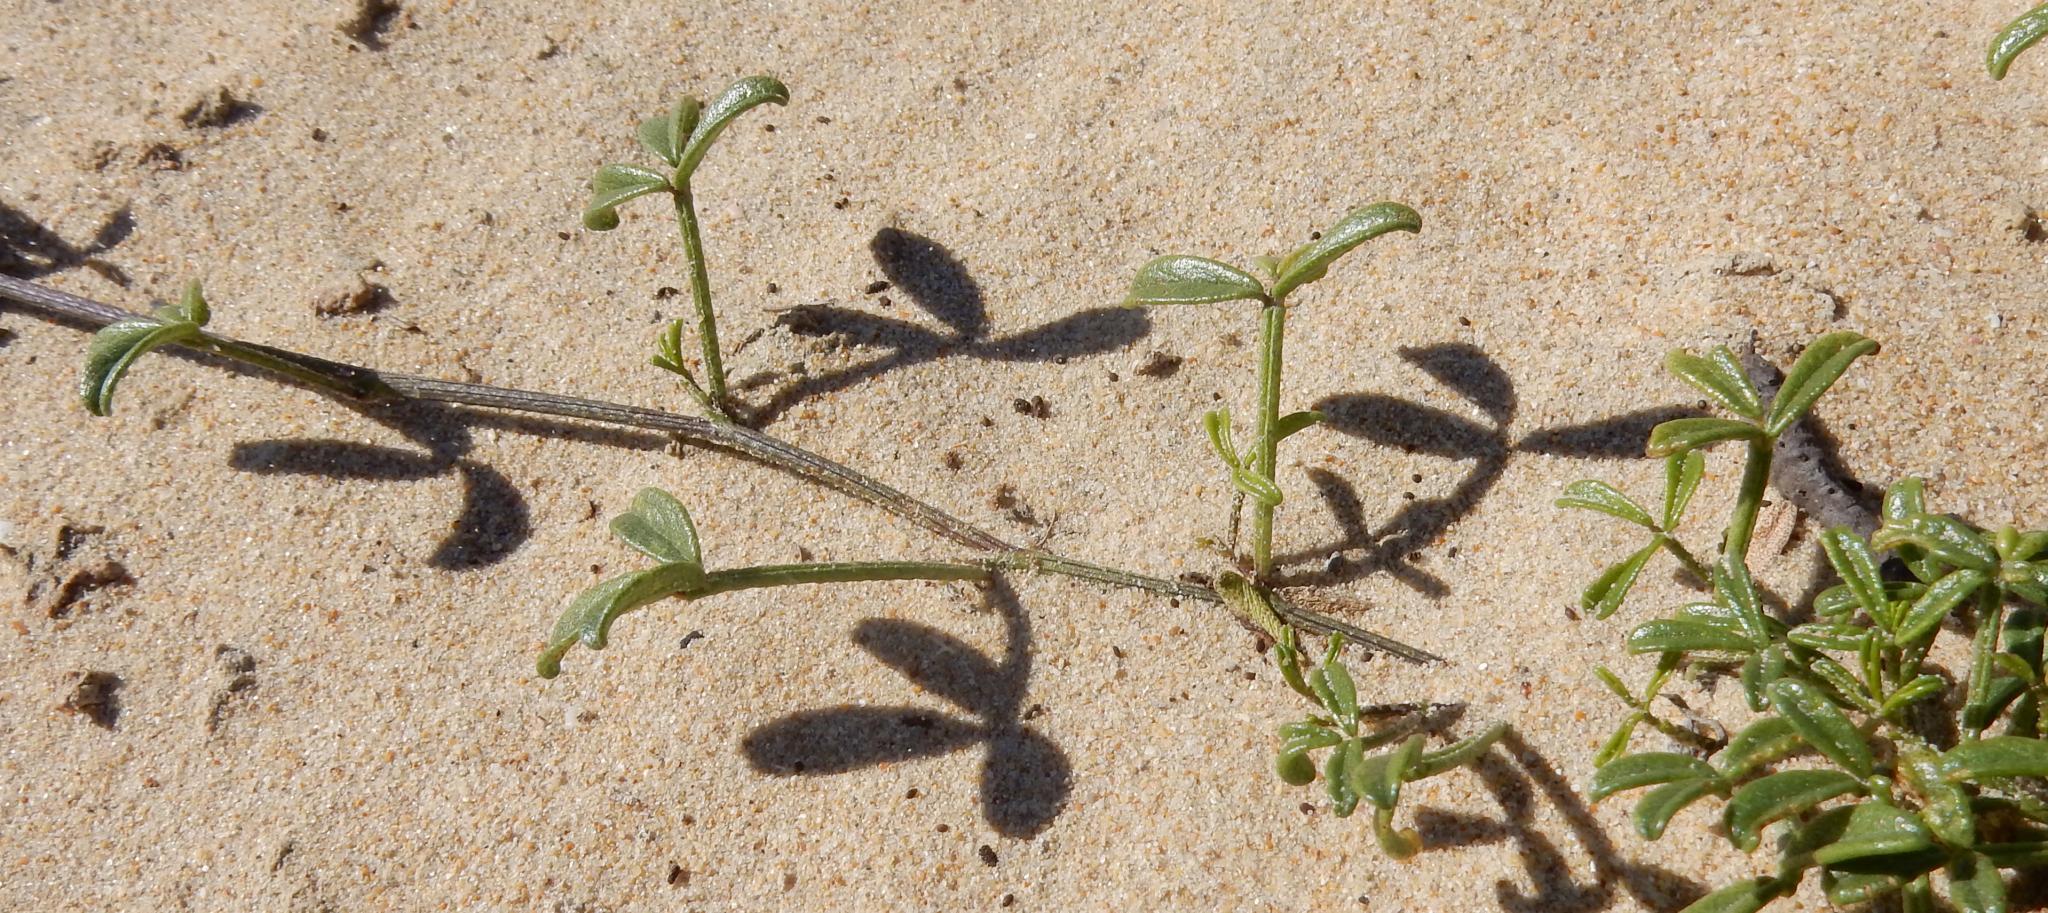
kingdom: Plantae
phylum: Tracheophyta
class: Magnoliopsida
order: Fabales
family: Fabaceae
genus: Psoralea
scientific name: Psoralea repens
